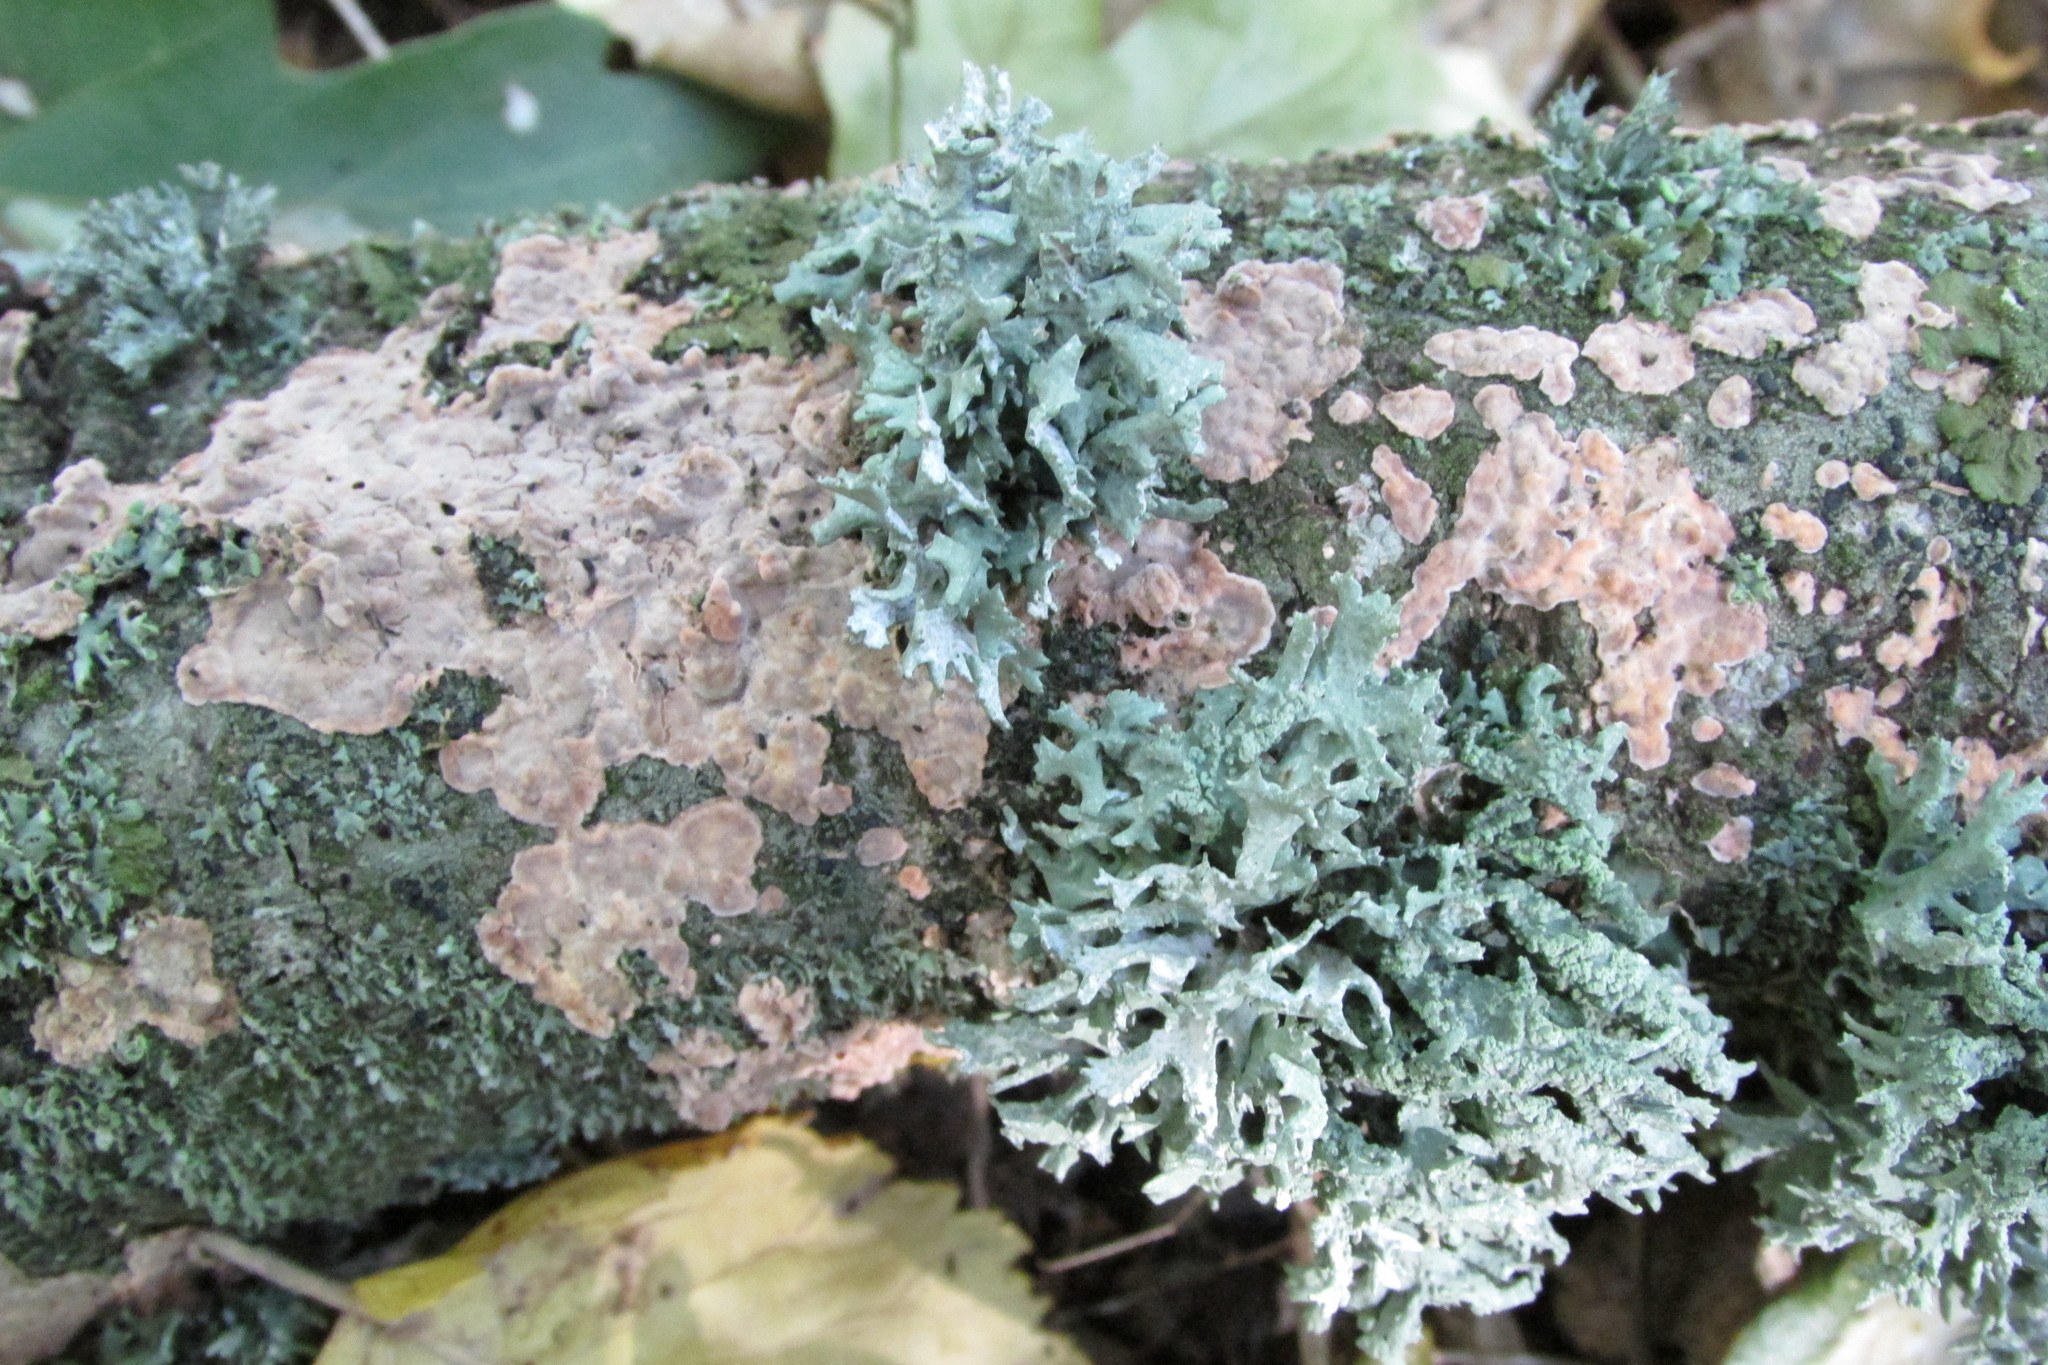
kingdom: Fungi
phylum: Ascomycota
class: Lecanoromycetes
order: Lecanorales
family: Parmeliaceae
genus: Evernia
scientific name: Evernia prunastri
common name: Oak moss
